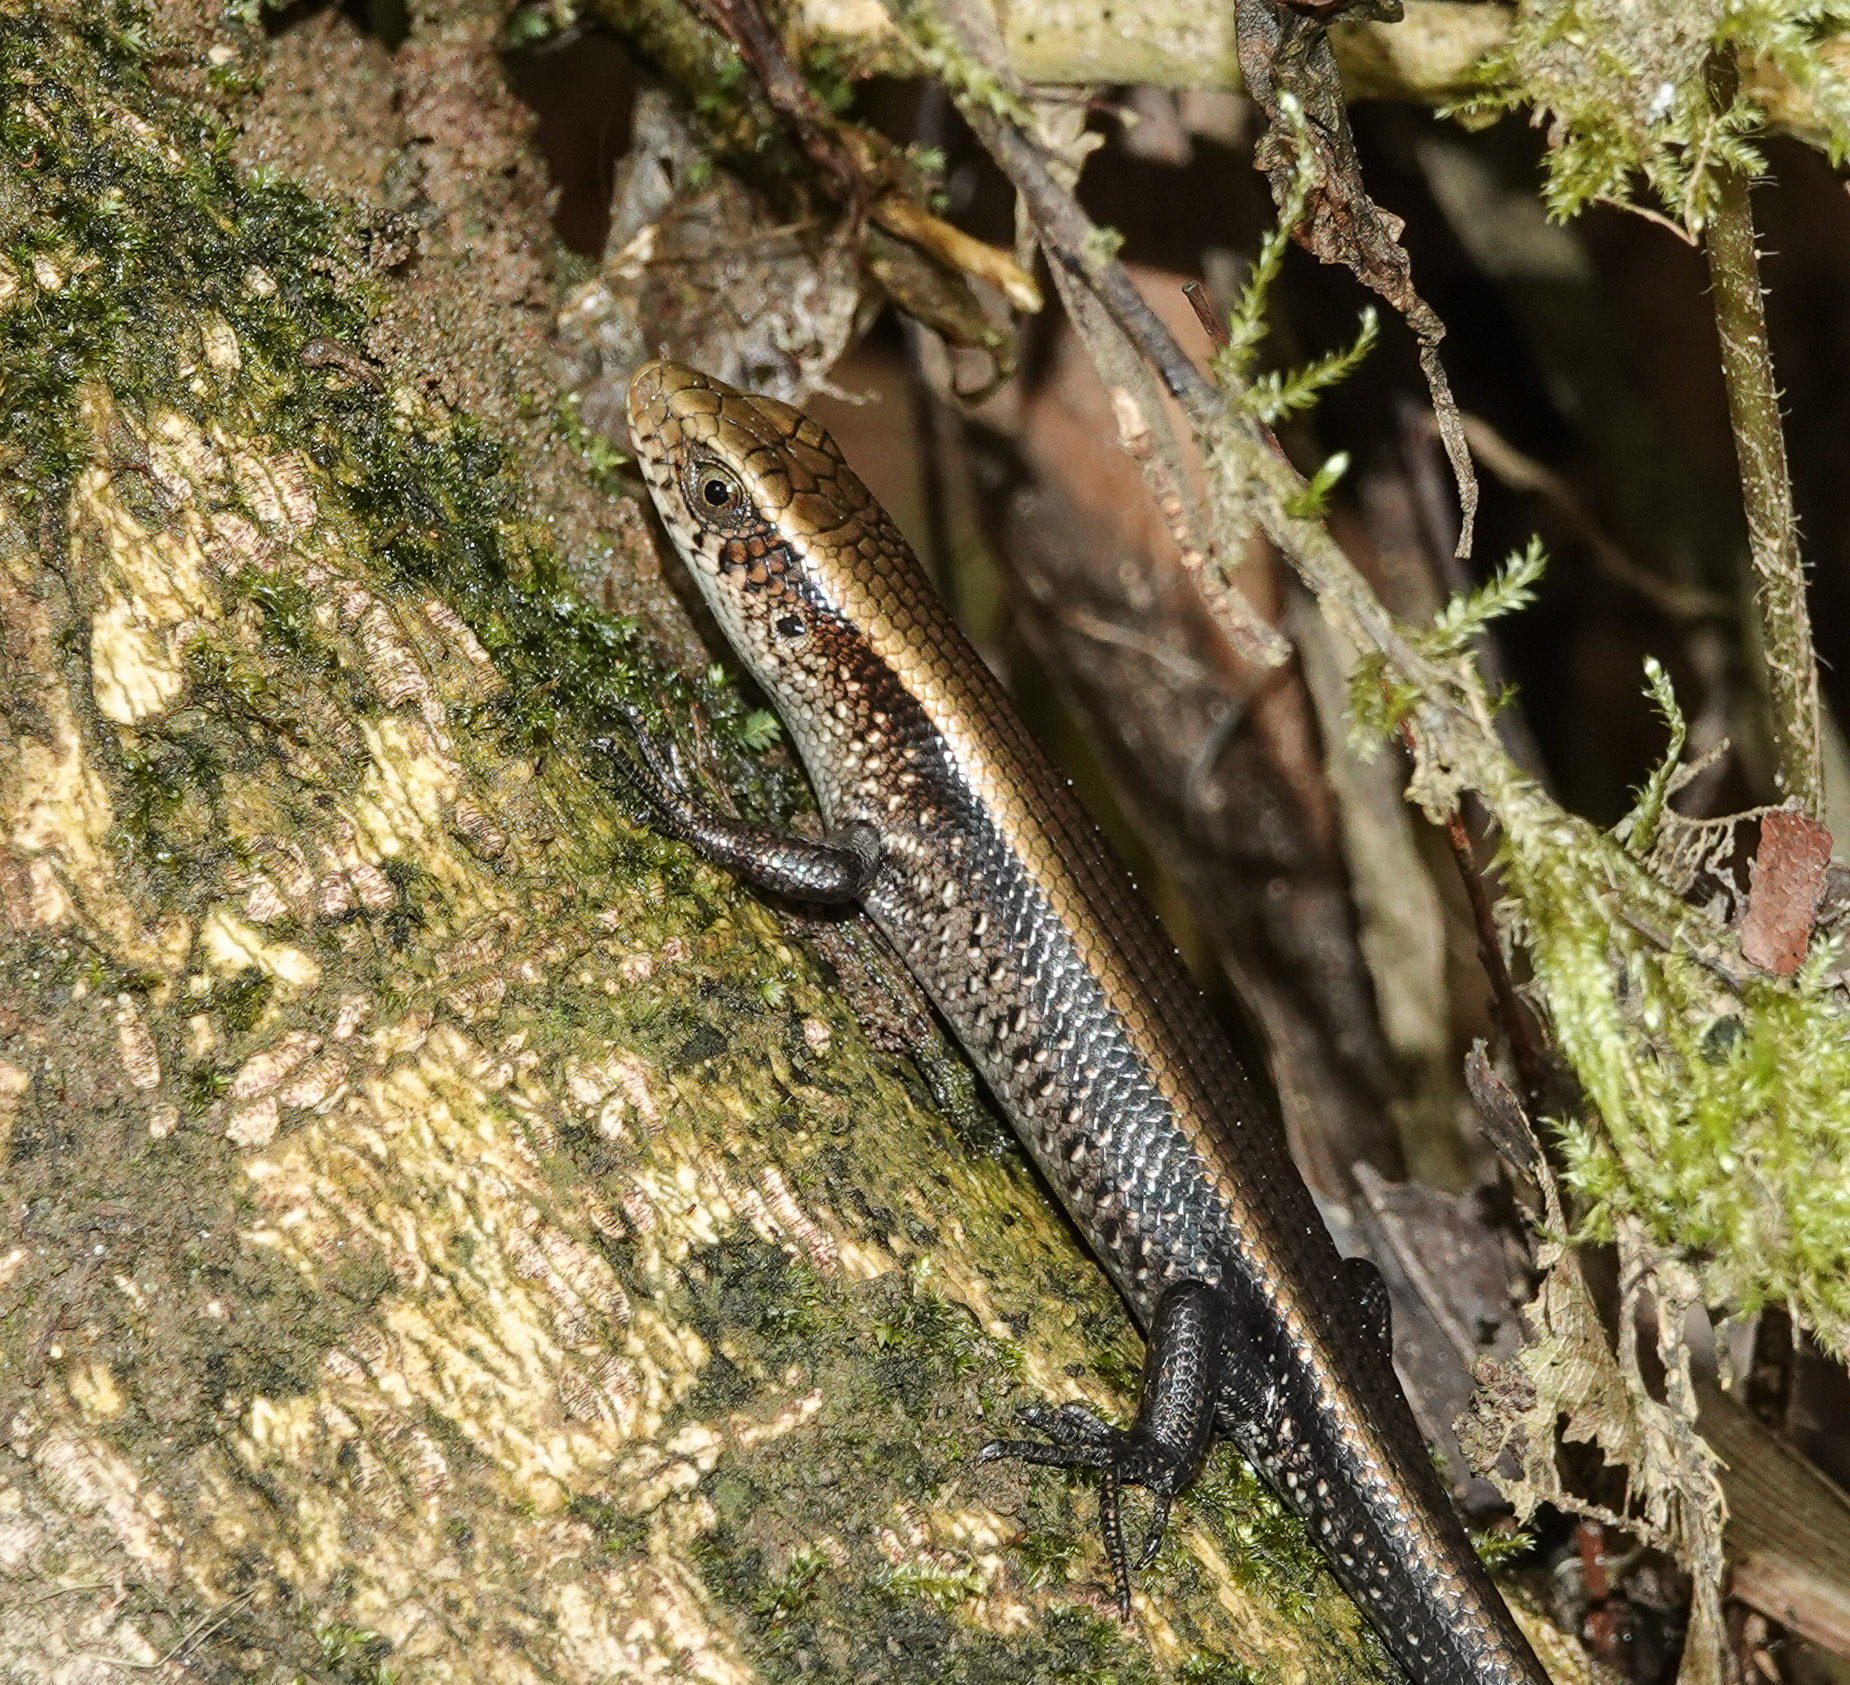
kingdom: Animalia
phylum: Chordata
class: Squamata
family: Scincidae
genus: Eutropis
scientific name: Eutropis multifasciata
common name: Common mabuya
